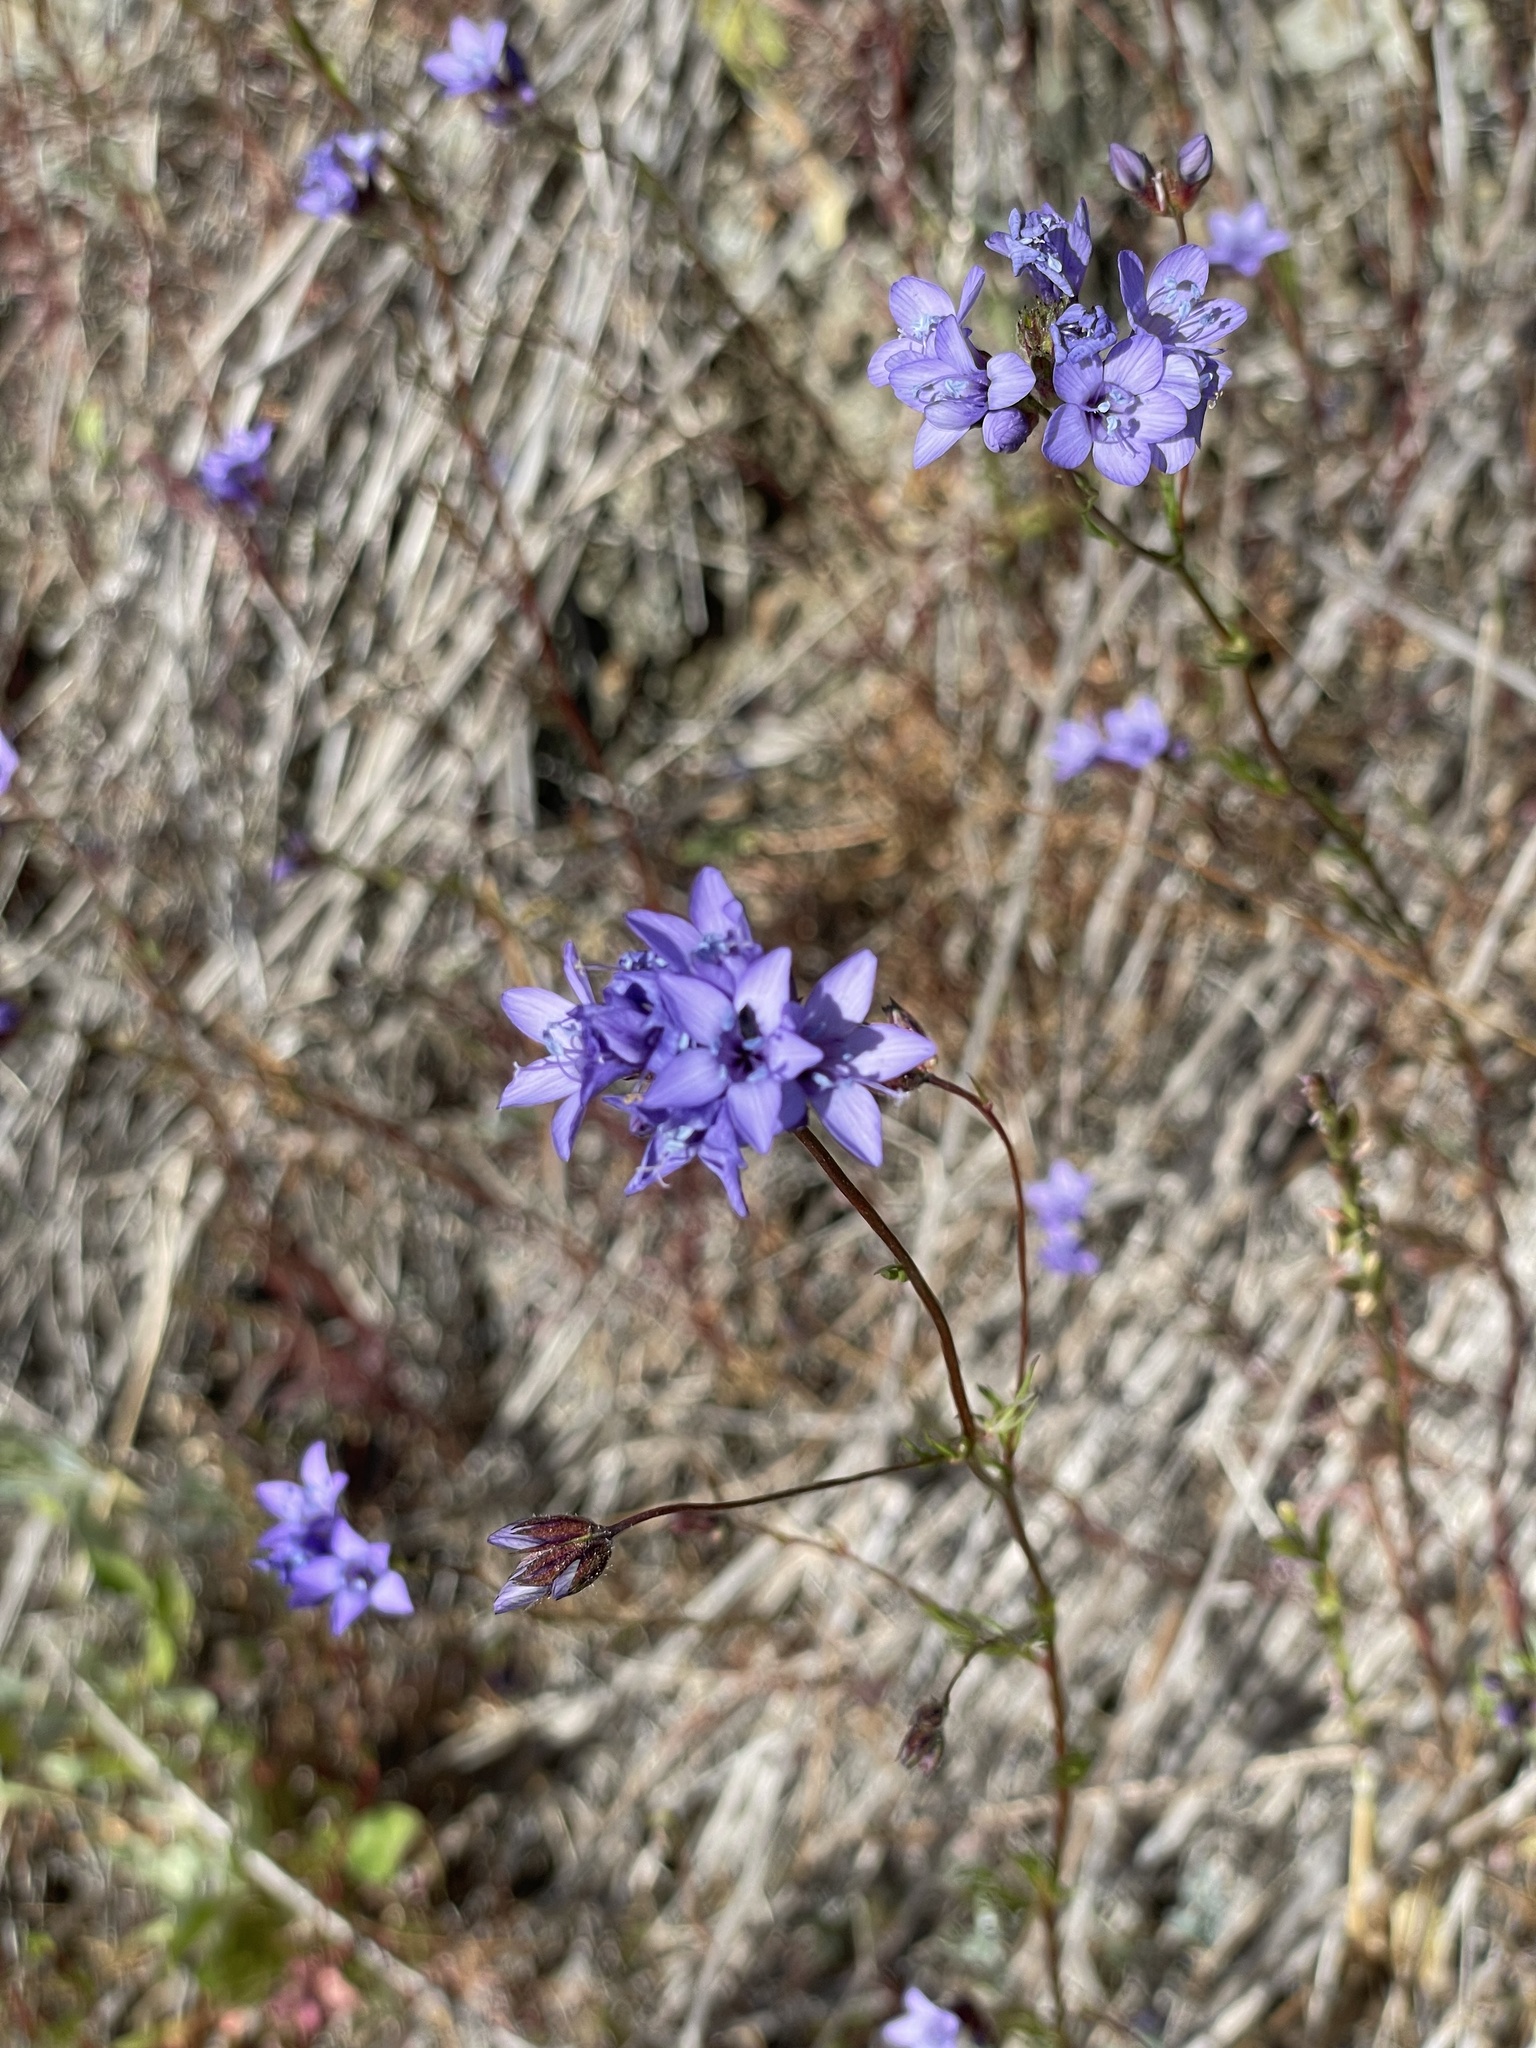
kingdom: Plantae
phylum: Tracheophyta
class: Magnoliopsida
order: Ericales
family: Polemoniaceae
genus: Gilia
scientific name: Gilia achilleifolia
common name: California gily-flower
